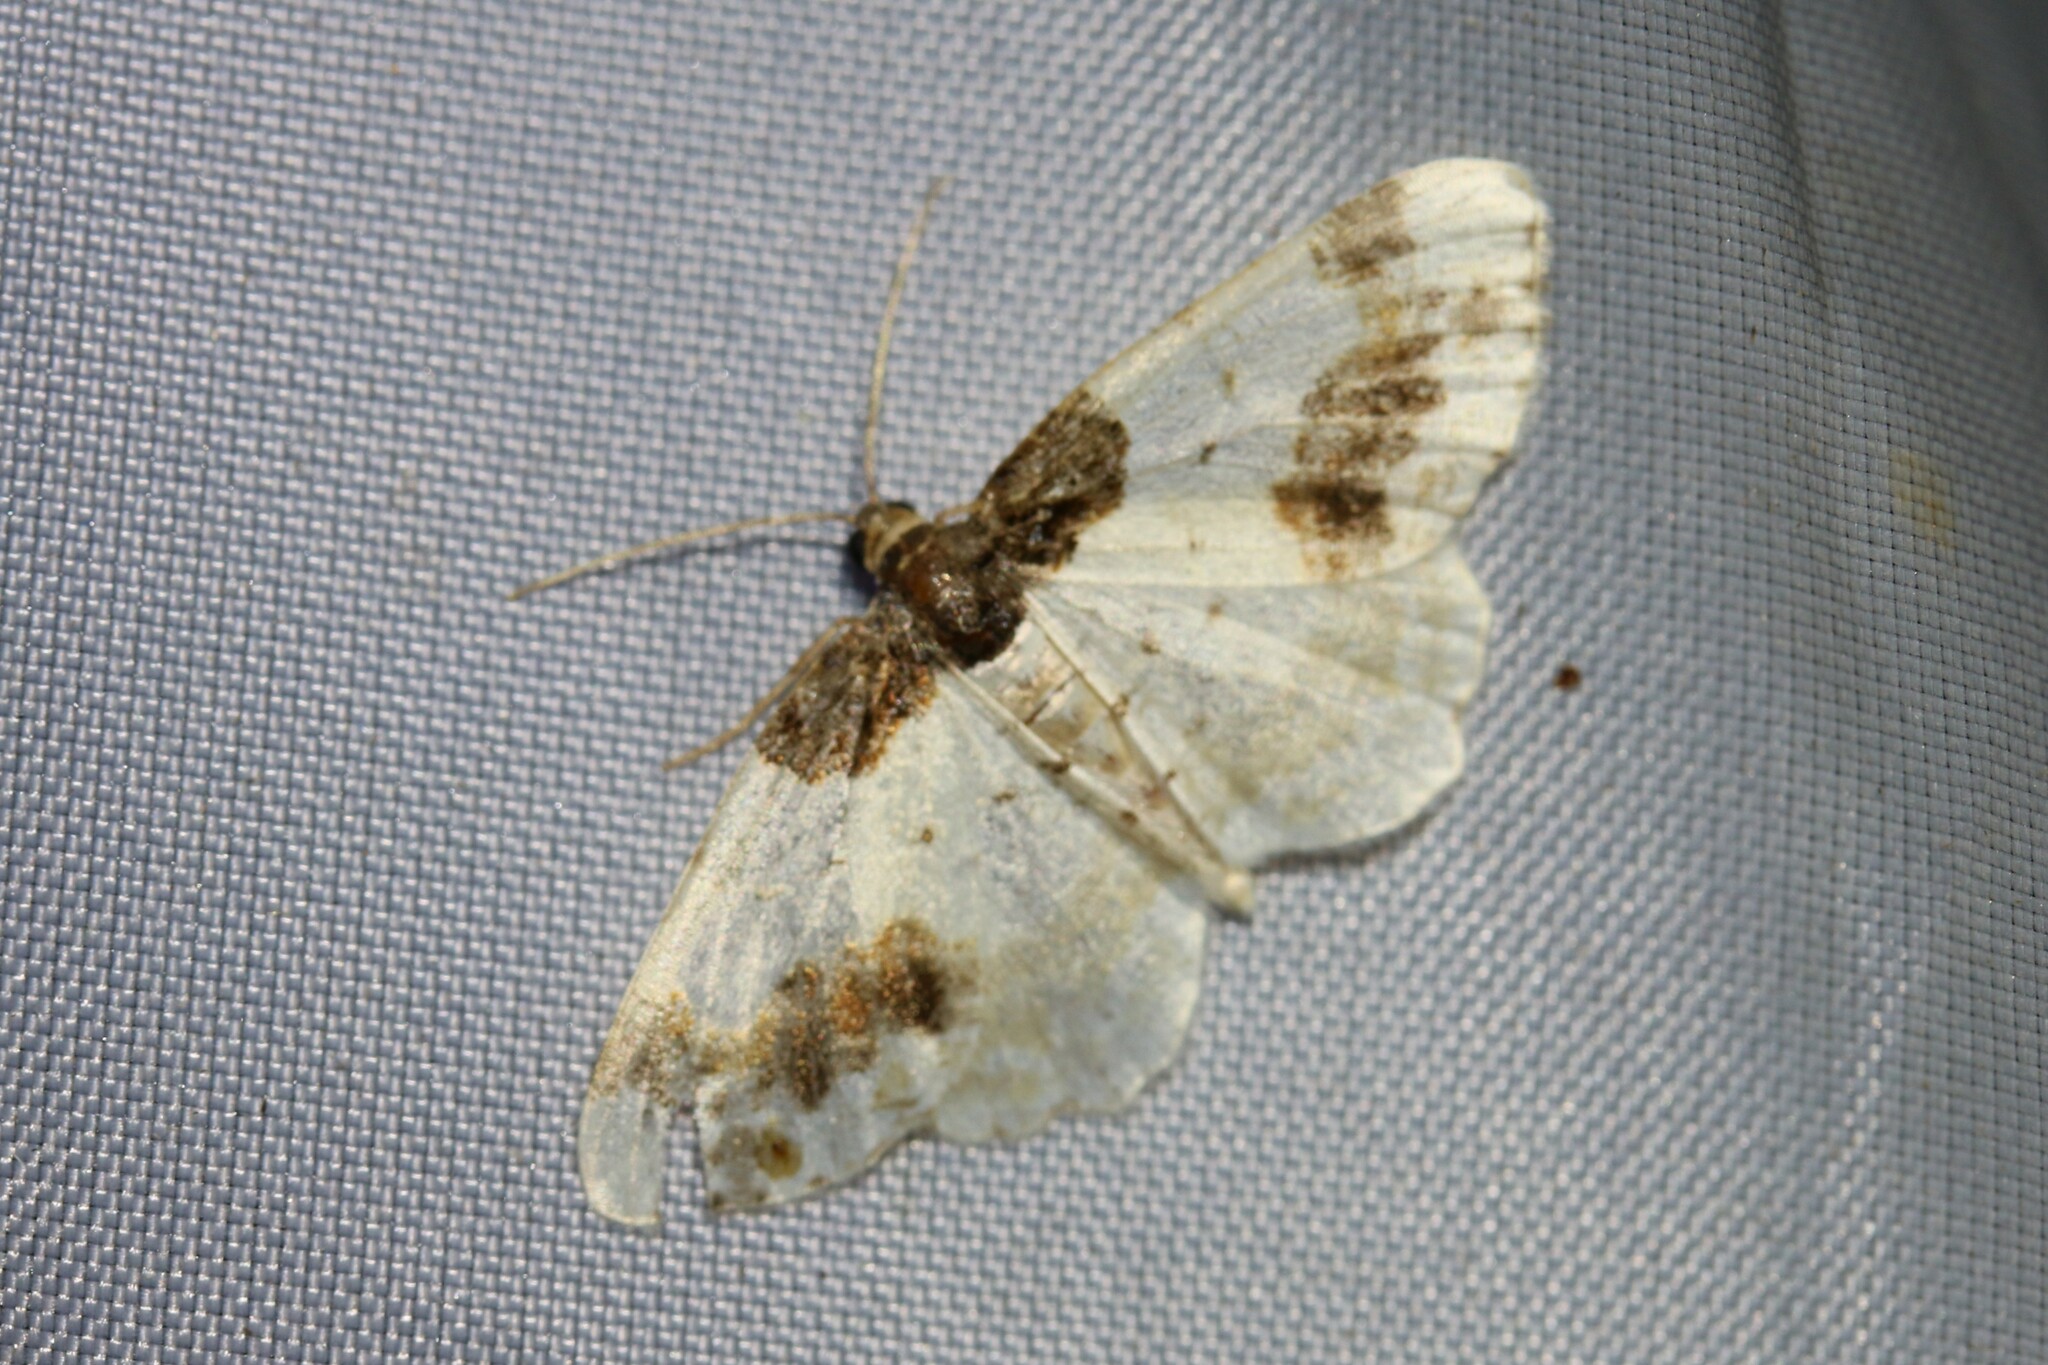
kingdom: Animalia
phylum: Arthropoda
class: Insecta
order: Lepidoptera
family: Geometridae
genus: Ligdia
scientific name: Ligdia adustata
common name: Scorched carpet
